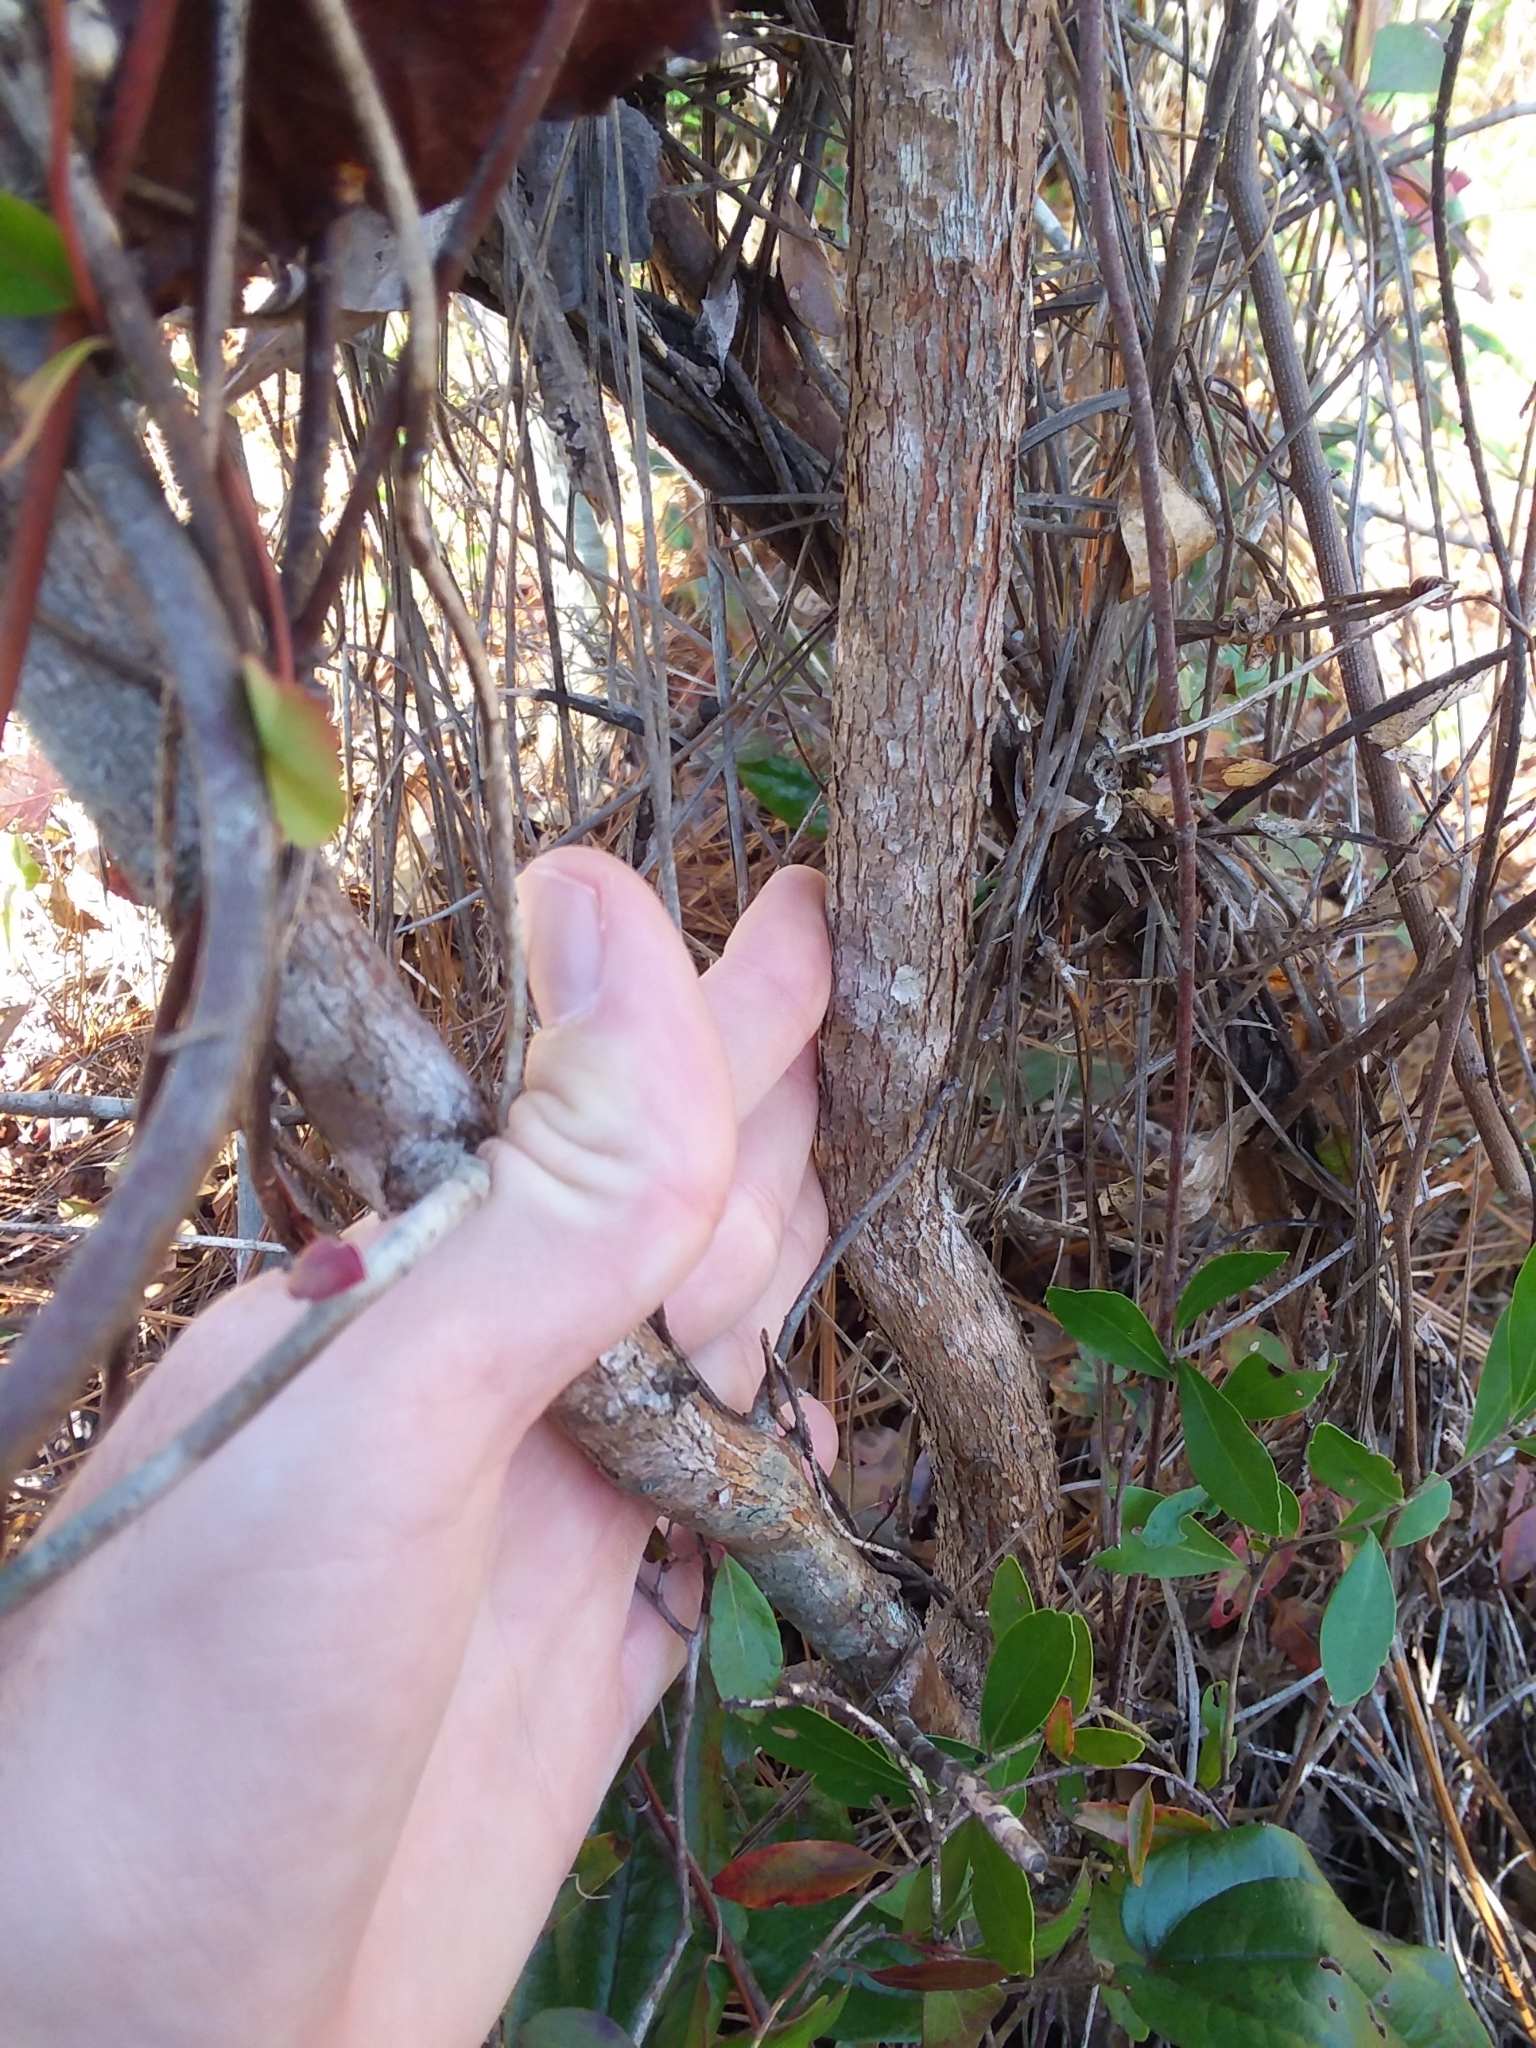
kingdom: Plantae
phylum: Tracheophyta
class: Magnoliopsida
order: Ericales
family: Ericaceae
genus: Vaccinium
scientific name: Vaccinium arboreum
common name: Farkleberry
